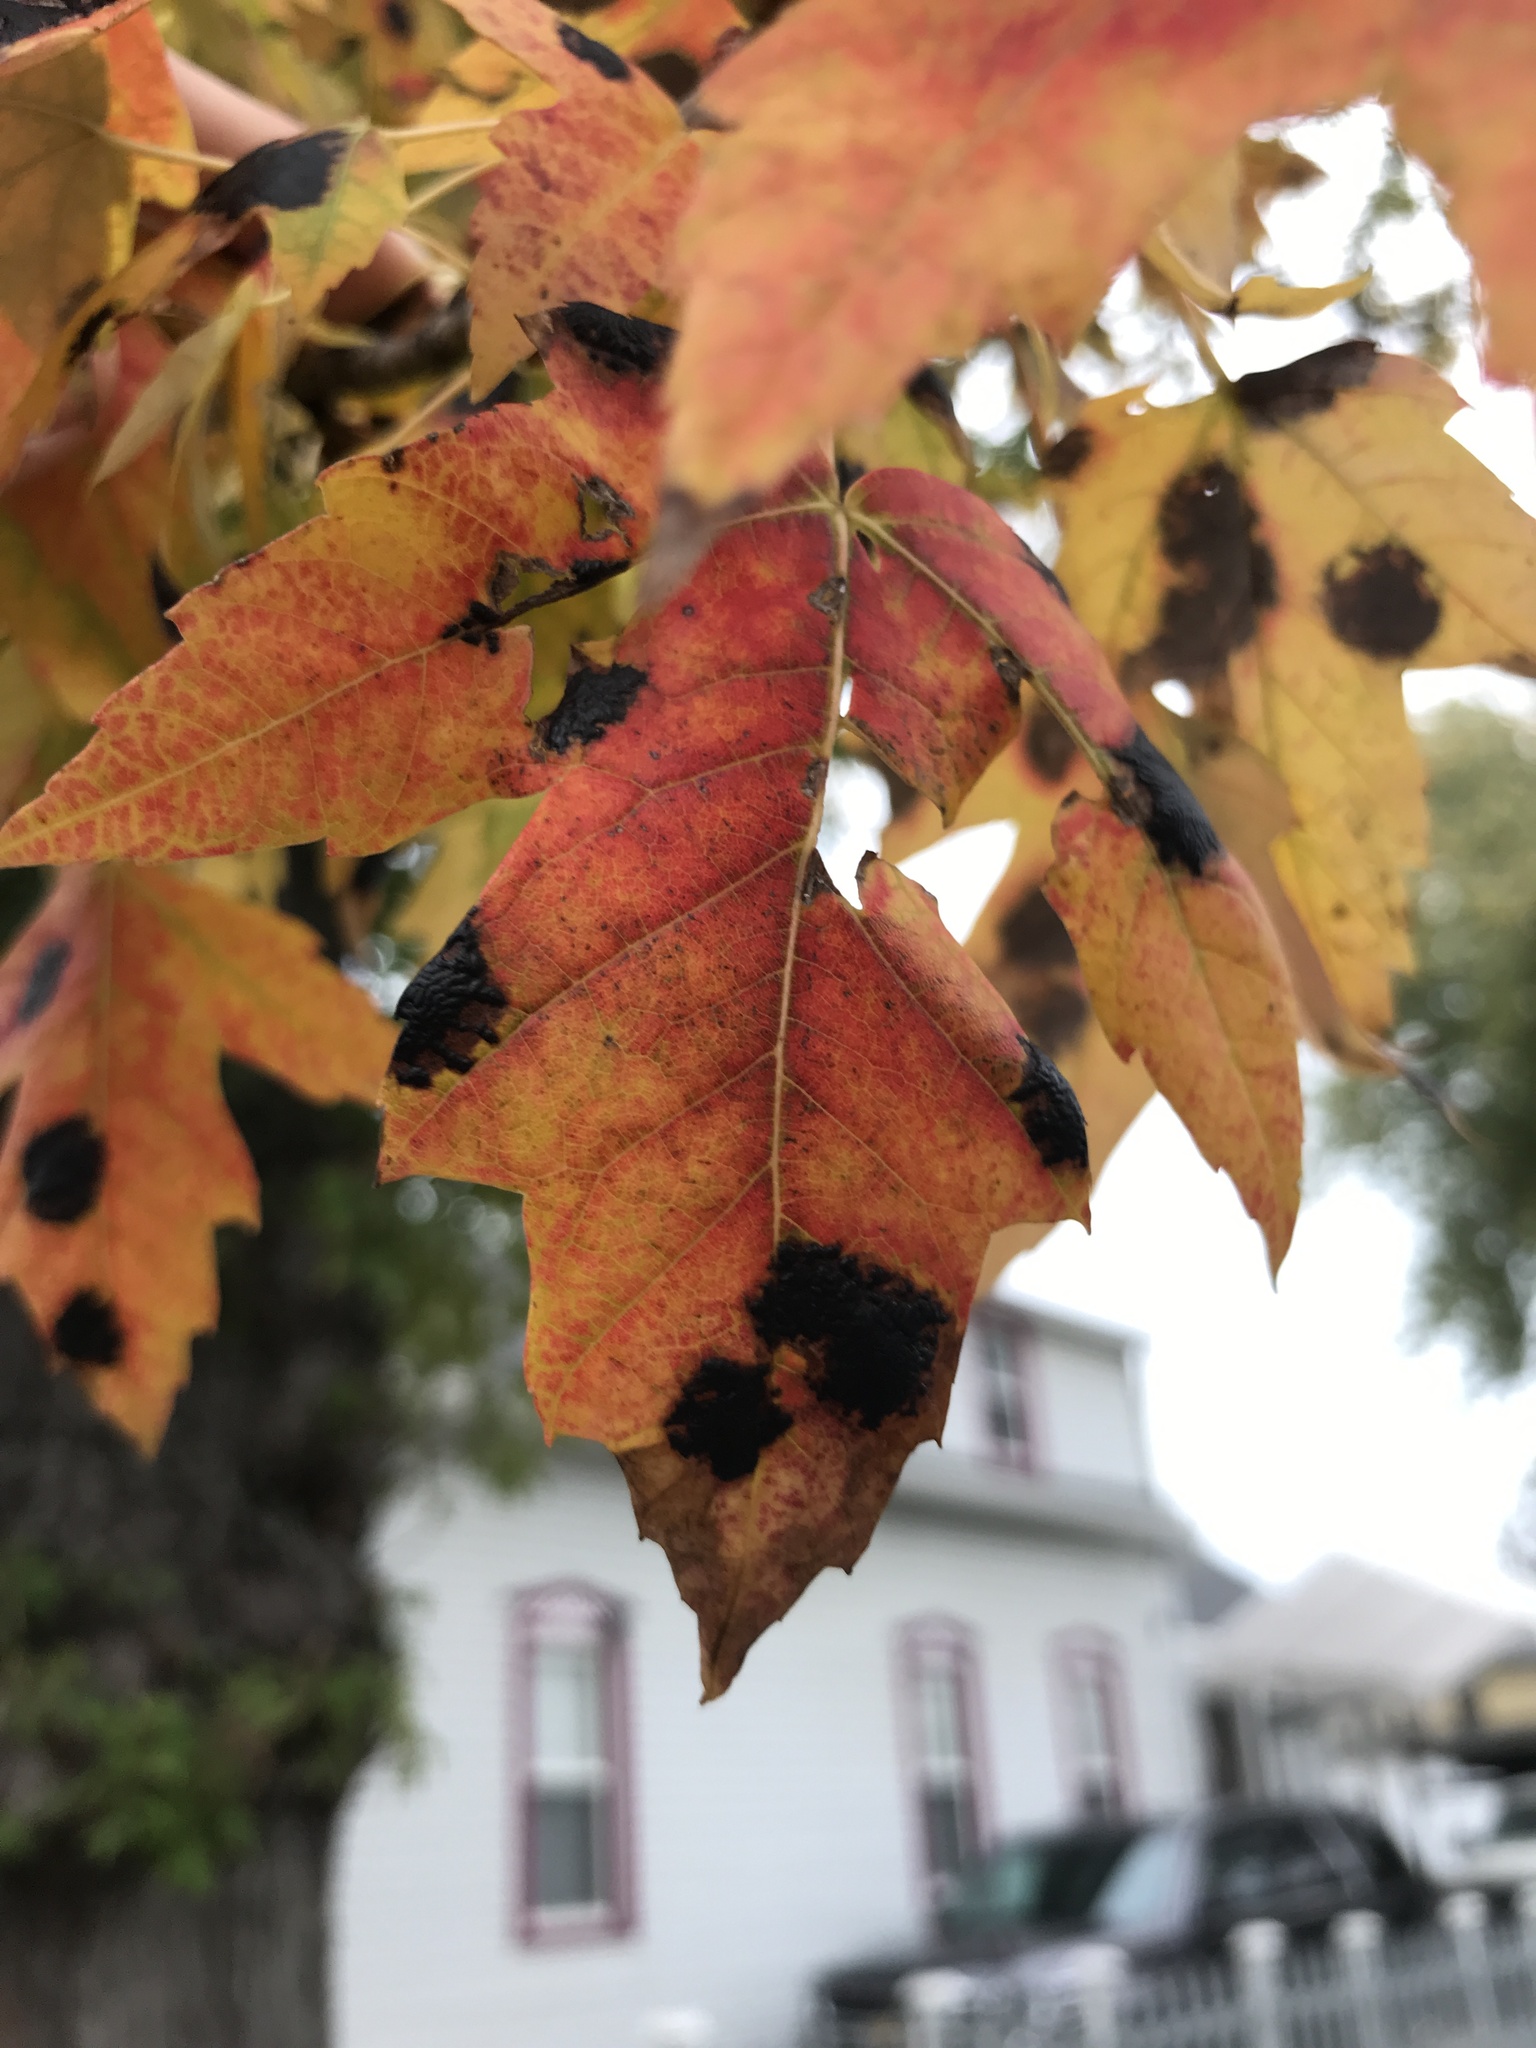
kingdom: Fungi
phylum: Ascomycota
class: Leotiomycetes
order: Rhytismatales
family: Rhytismataceae
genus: Rhytisma
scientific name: Rhytisma americanum
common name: American tar spot
